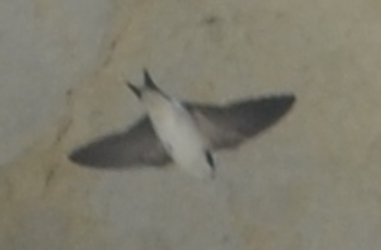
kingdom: Animalia
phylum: Chordata
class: Aves
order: Passeriformes
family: Hirundinidae
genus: Delichon
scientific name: Delichon urbicum
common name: Common house martin
